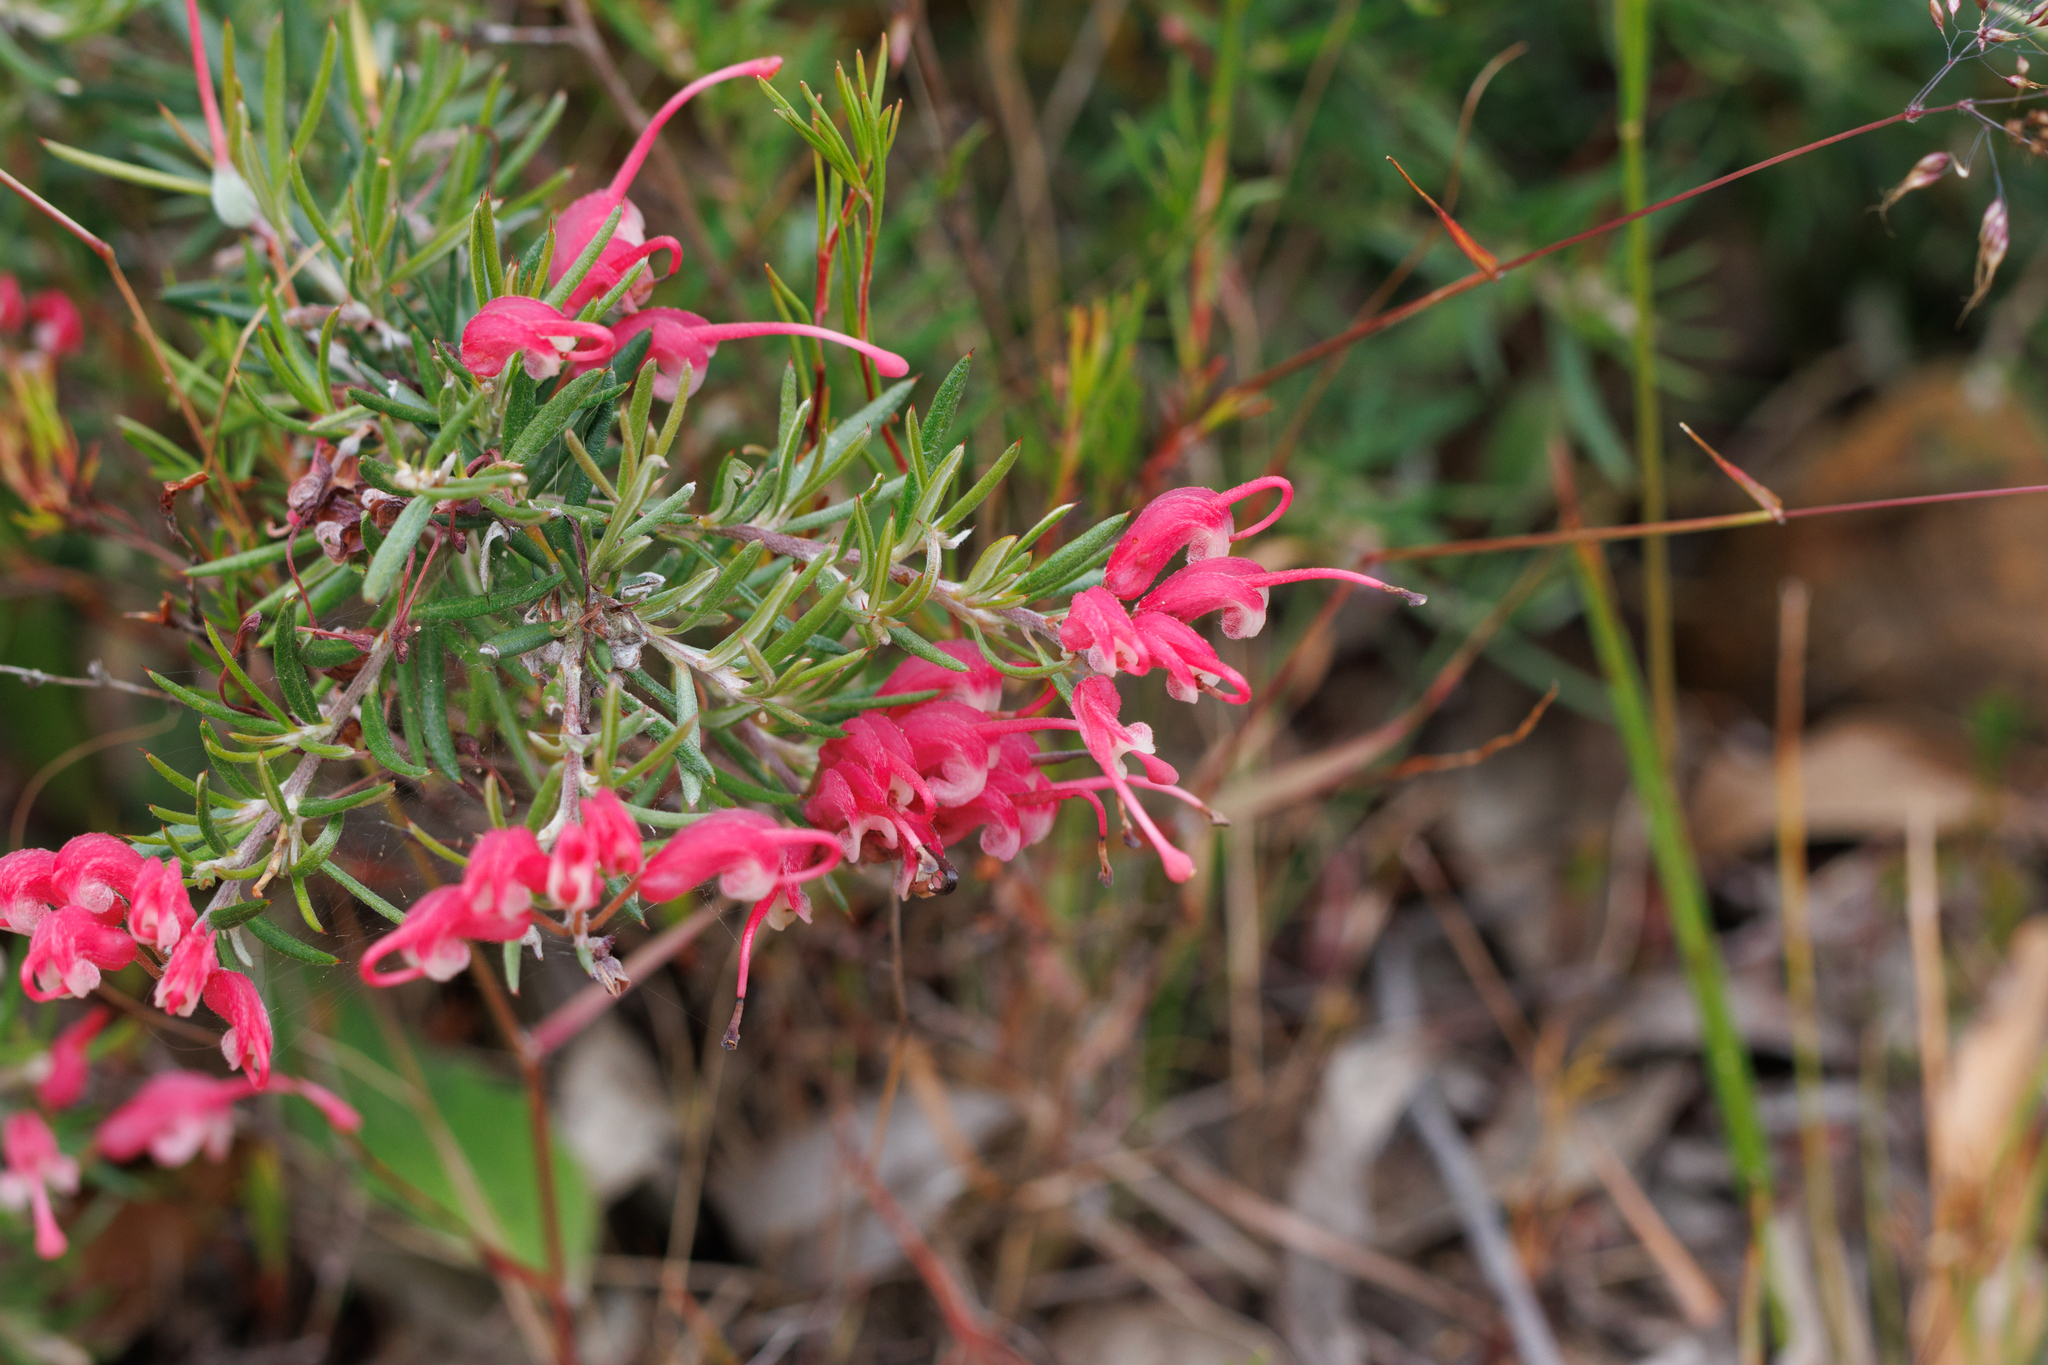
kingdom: Plantae
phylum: Tracheophyta
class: Magnoliopsida
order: Proteales
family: Proteaceae
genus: Grevillea
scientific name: Grevillea lavandulacea
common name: Lavender grevillea
